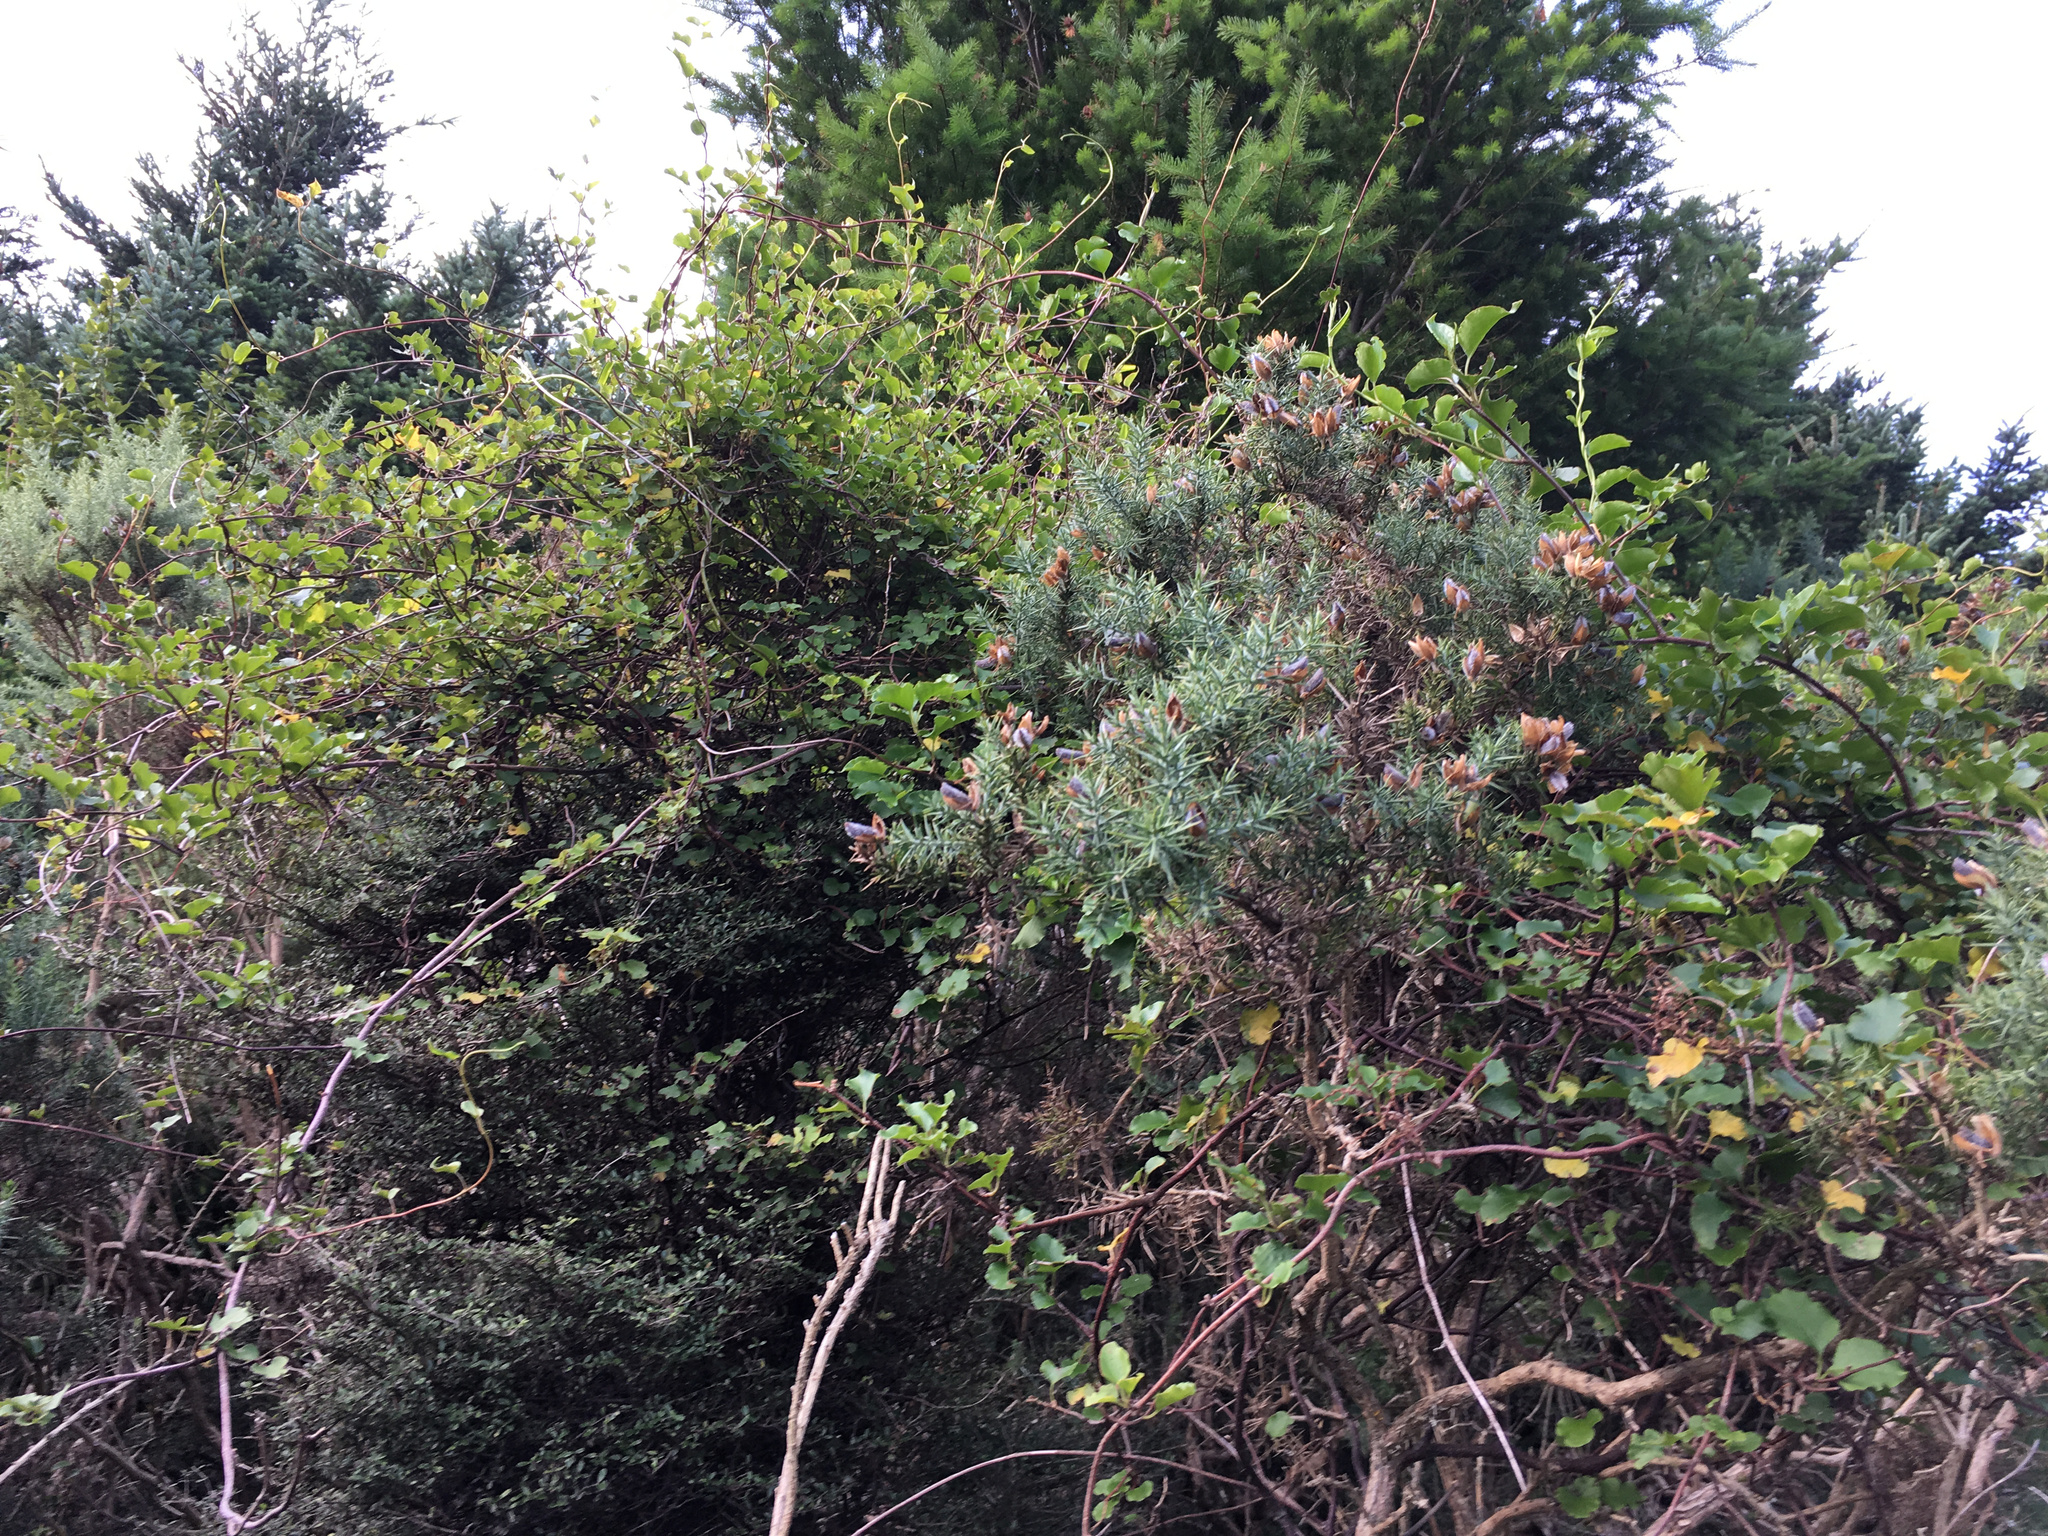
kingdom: Plantae
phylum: Tracheophyta
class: Magnoliopsida
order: Caryophyllales
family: Polygonaceae
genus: Muehlenbeckia
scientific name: Muehlenbeckia australis
